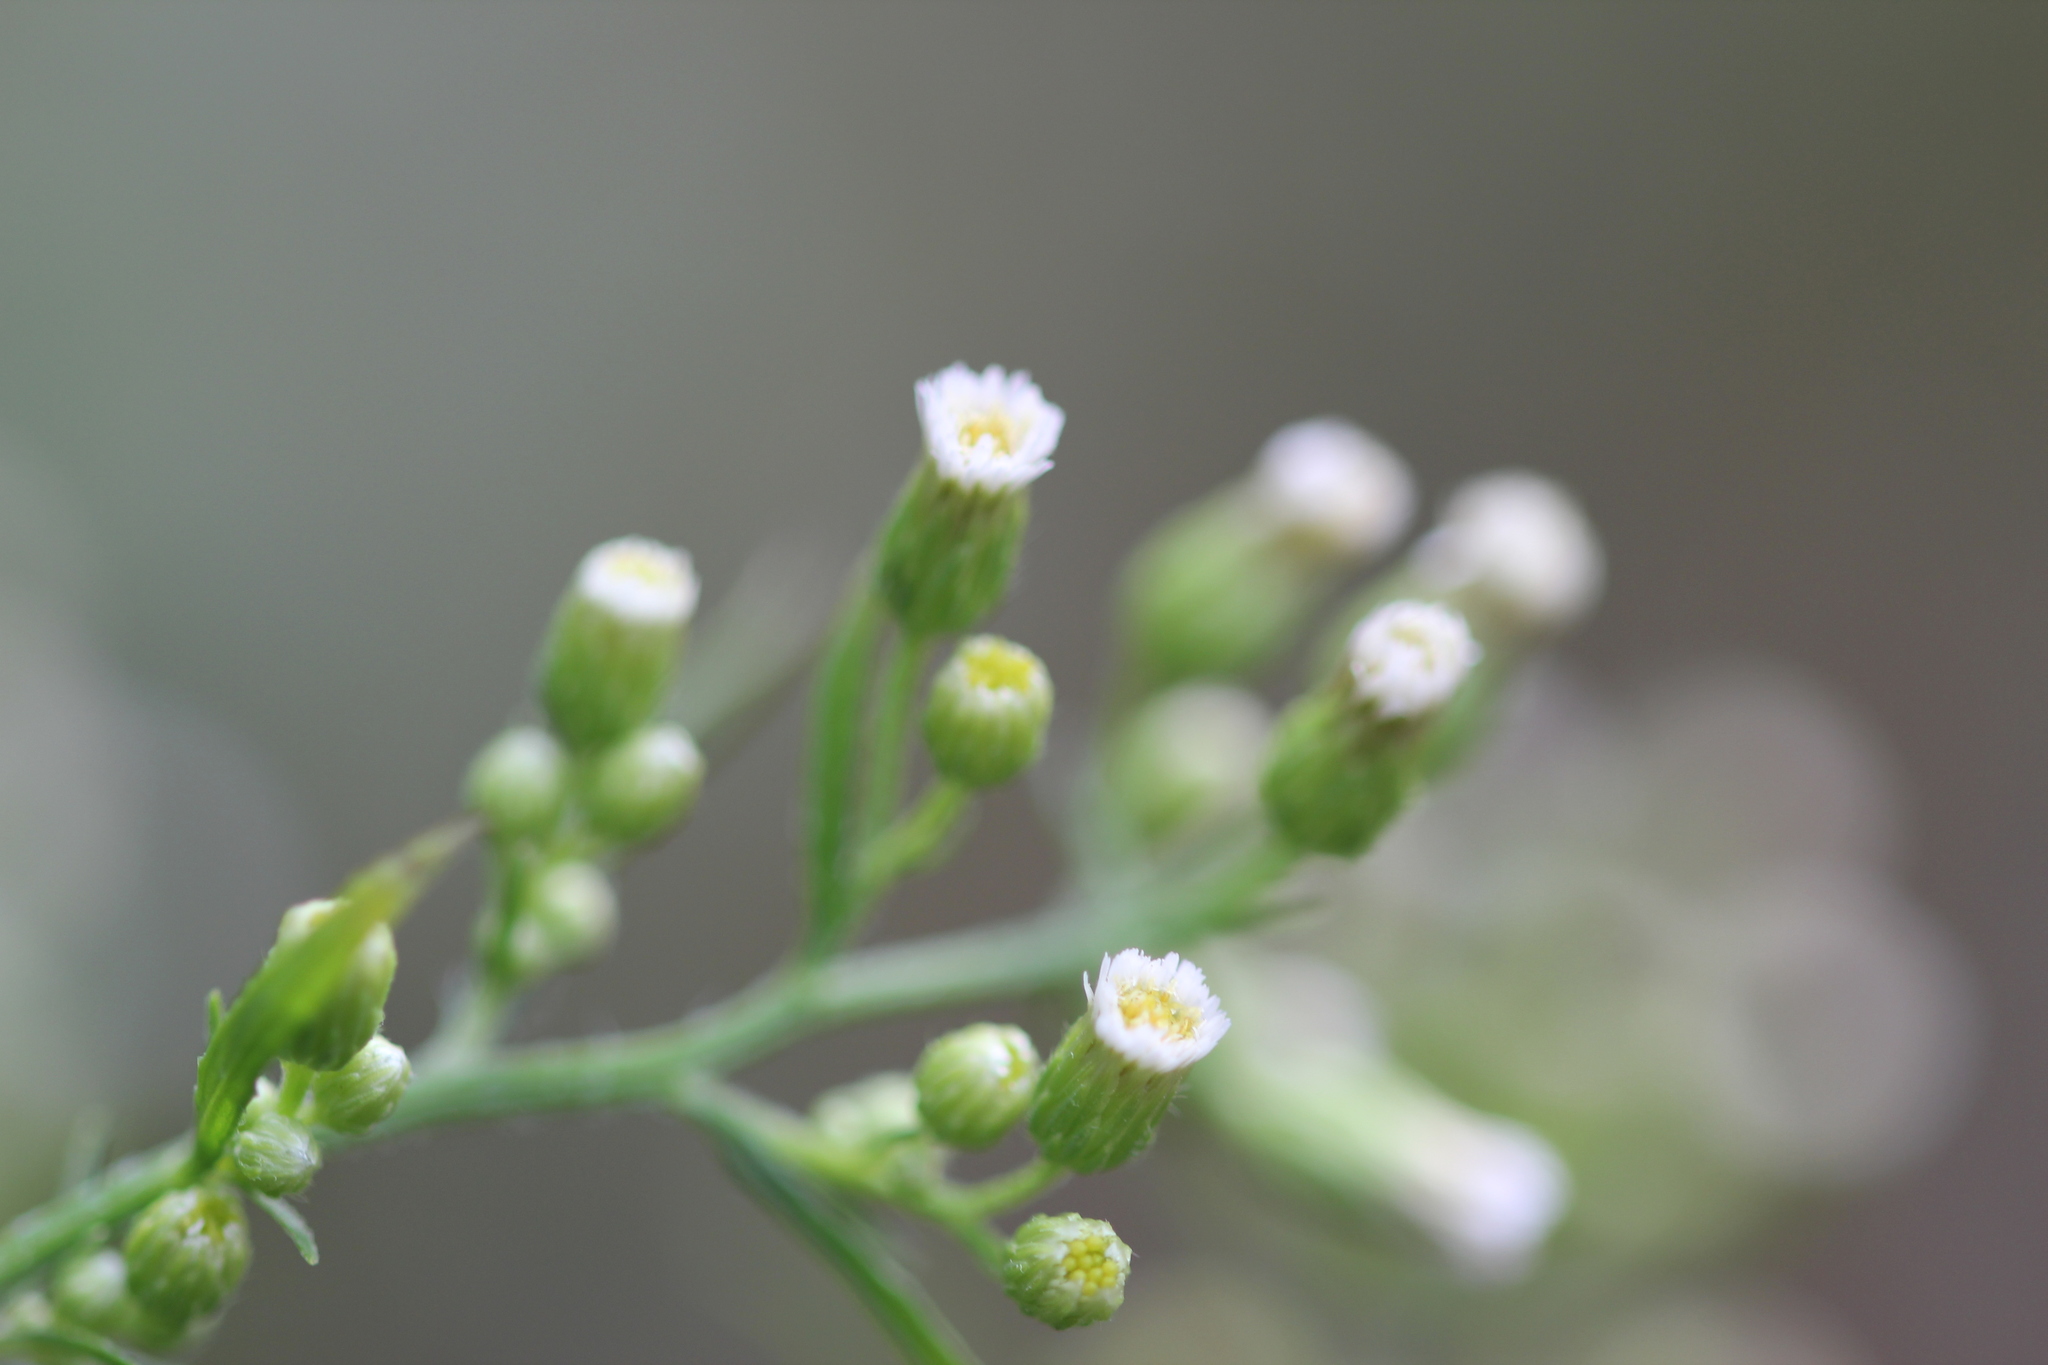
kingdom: Plantae
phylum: Tracheophyta
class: Magnoliopsida
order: Asterales
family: Asteraceae
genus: Erigeron
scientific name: Erigeron canadensis
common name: Canadian fleabane
